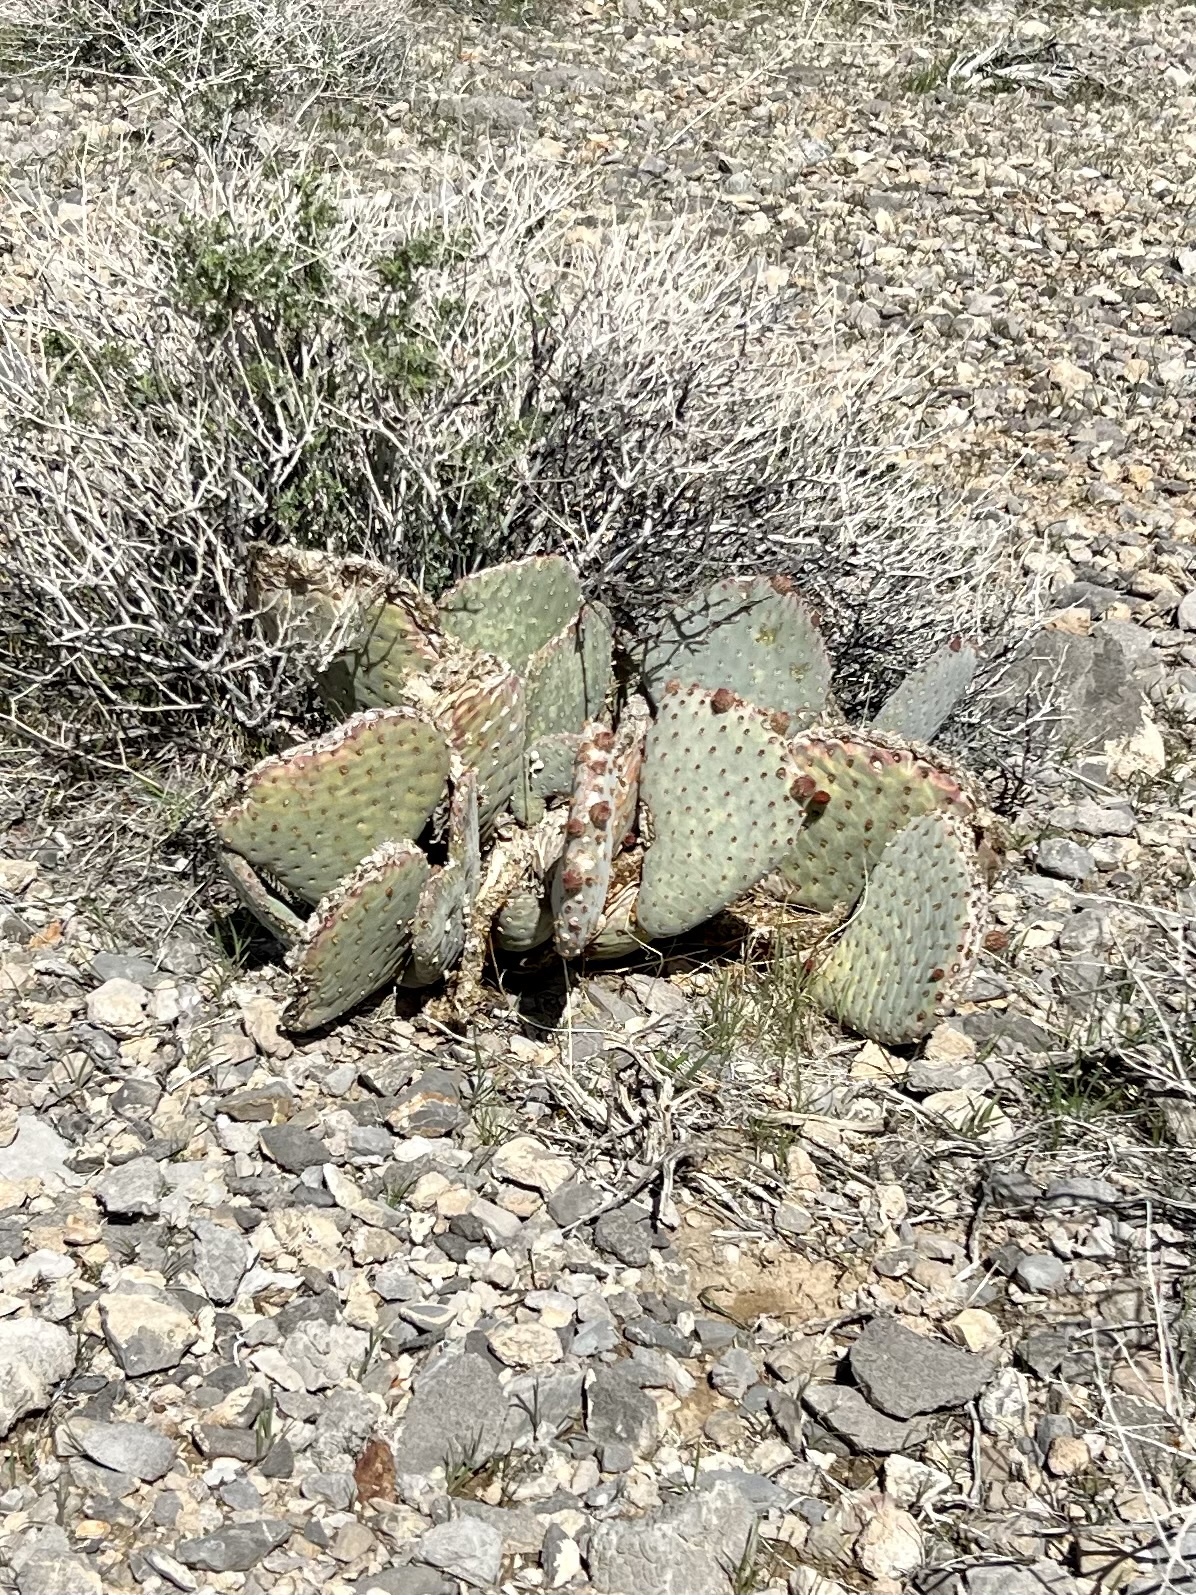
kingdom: Plantae
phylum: Tracheophyta
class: Magnoliopsida
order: Caryophyllales
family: Cactaceae
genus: Opuntia
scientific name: Opuntia basilaris
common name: Beavertail prickly-pear
